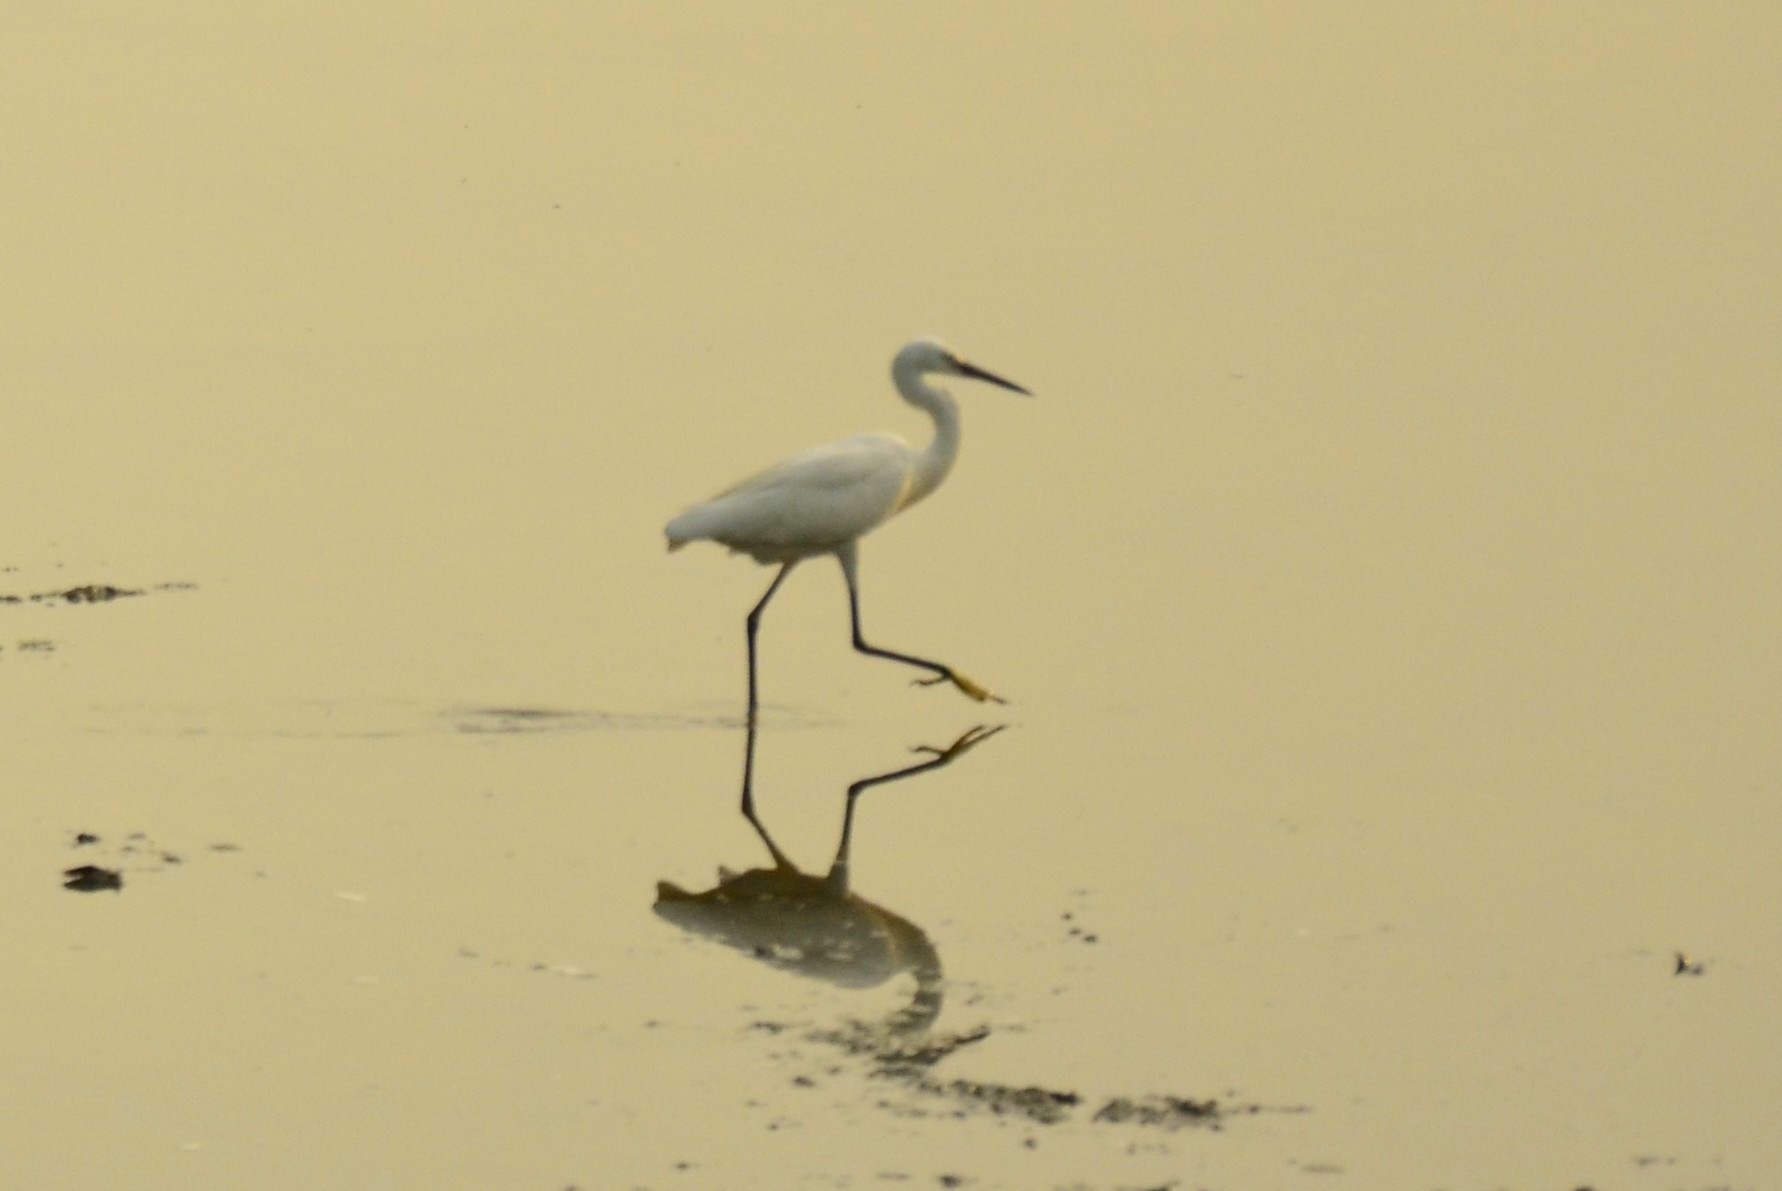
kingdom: Animalia
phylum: Chordata
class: Aves
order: Pelecaniformes
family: Ardeidae
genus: Egretta
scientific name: Egretta garzetta
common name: Little egret
